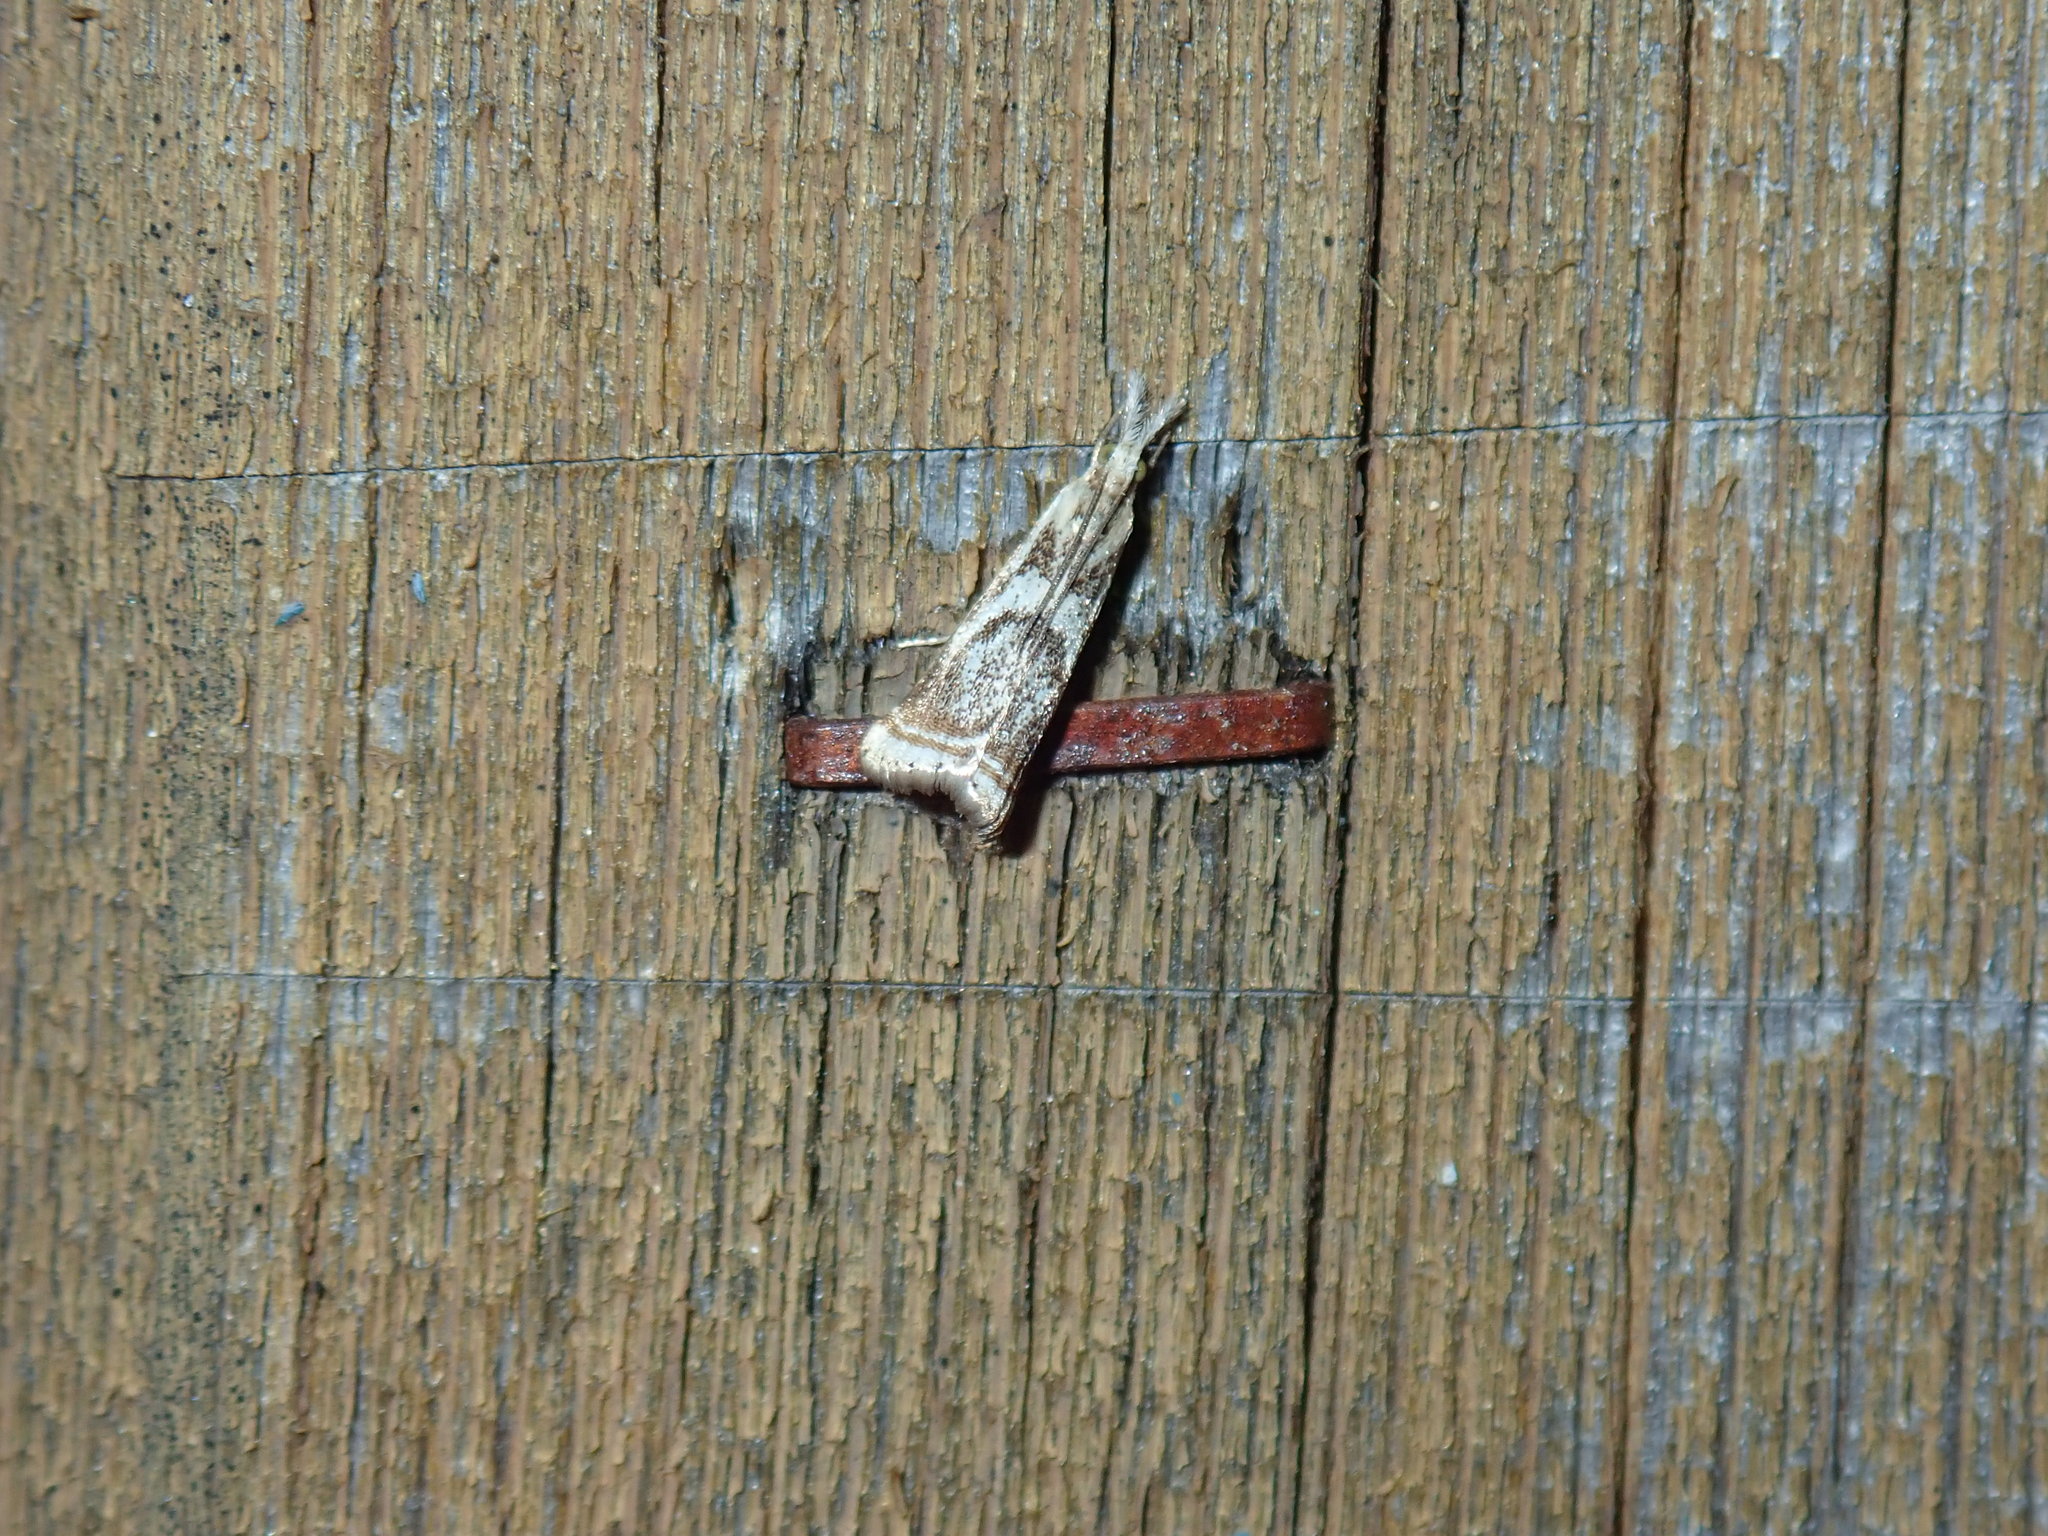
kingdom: Animalia
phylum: Arthropoda
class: Insecta
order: Lepidoptera
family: Crambidae
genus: Microcrambus
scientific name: Microcrambus elegans
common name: Elegant grass-veneer
